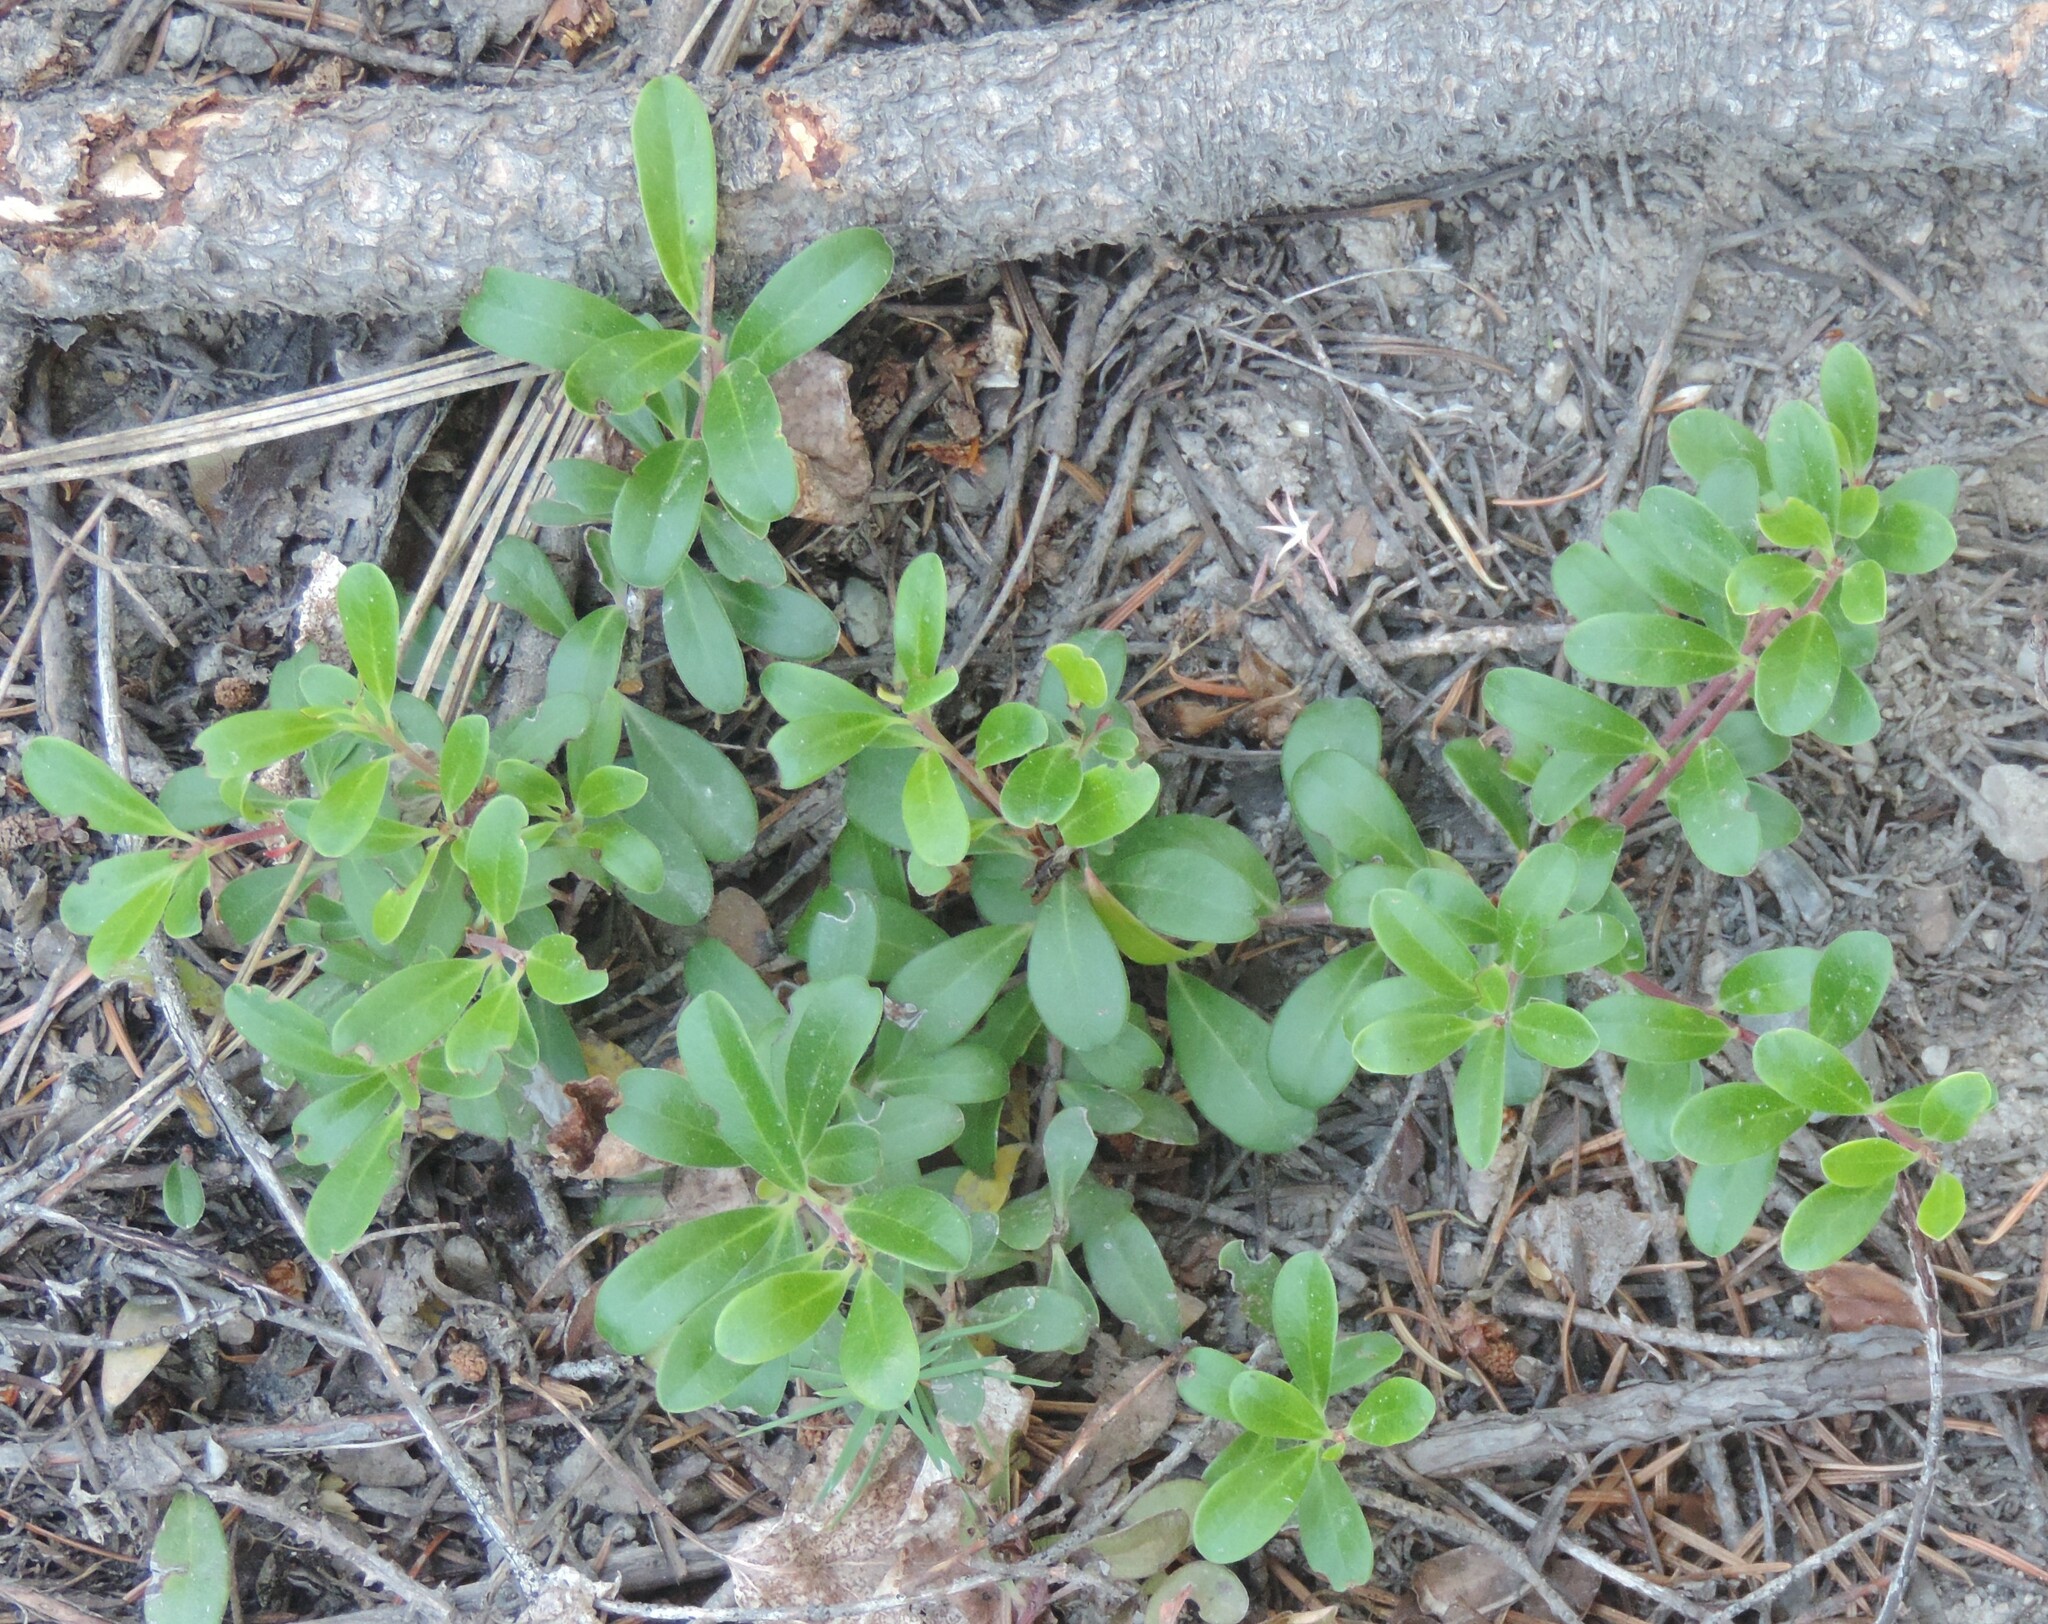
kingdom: Plantae
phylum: Tracheophyta
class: Magnoliopsida
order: Ericales
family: Ericaceae
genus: Arctostaphylos
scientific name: Arctostaphylos uva-ursi
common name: Bearberry
